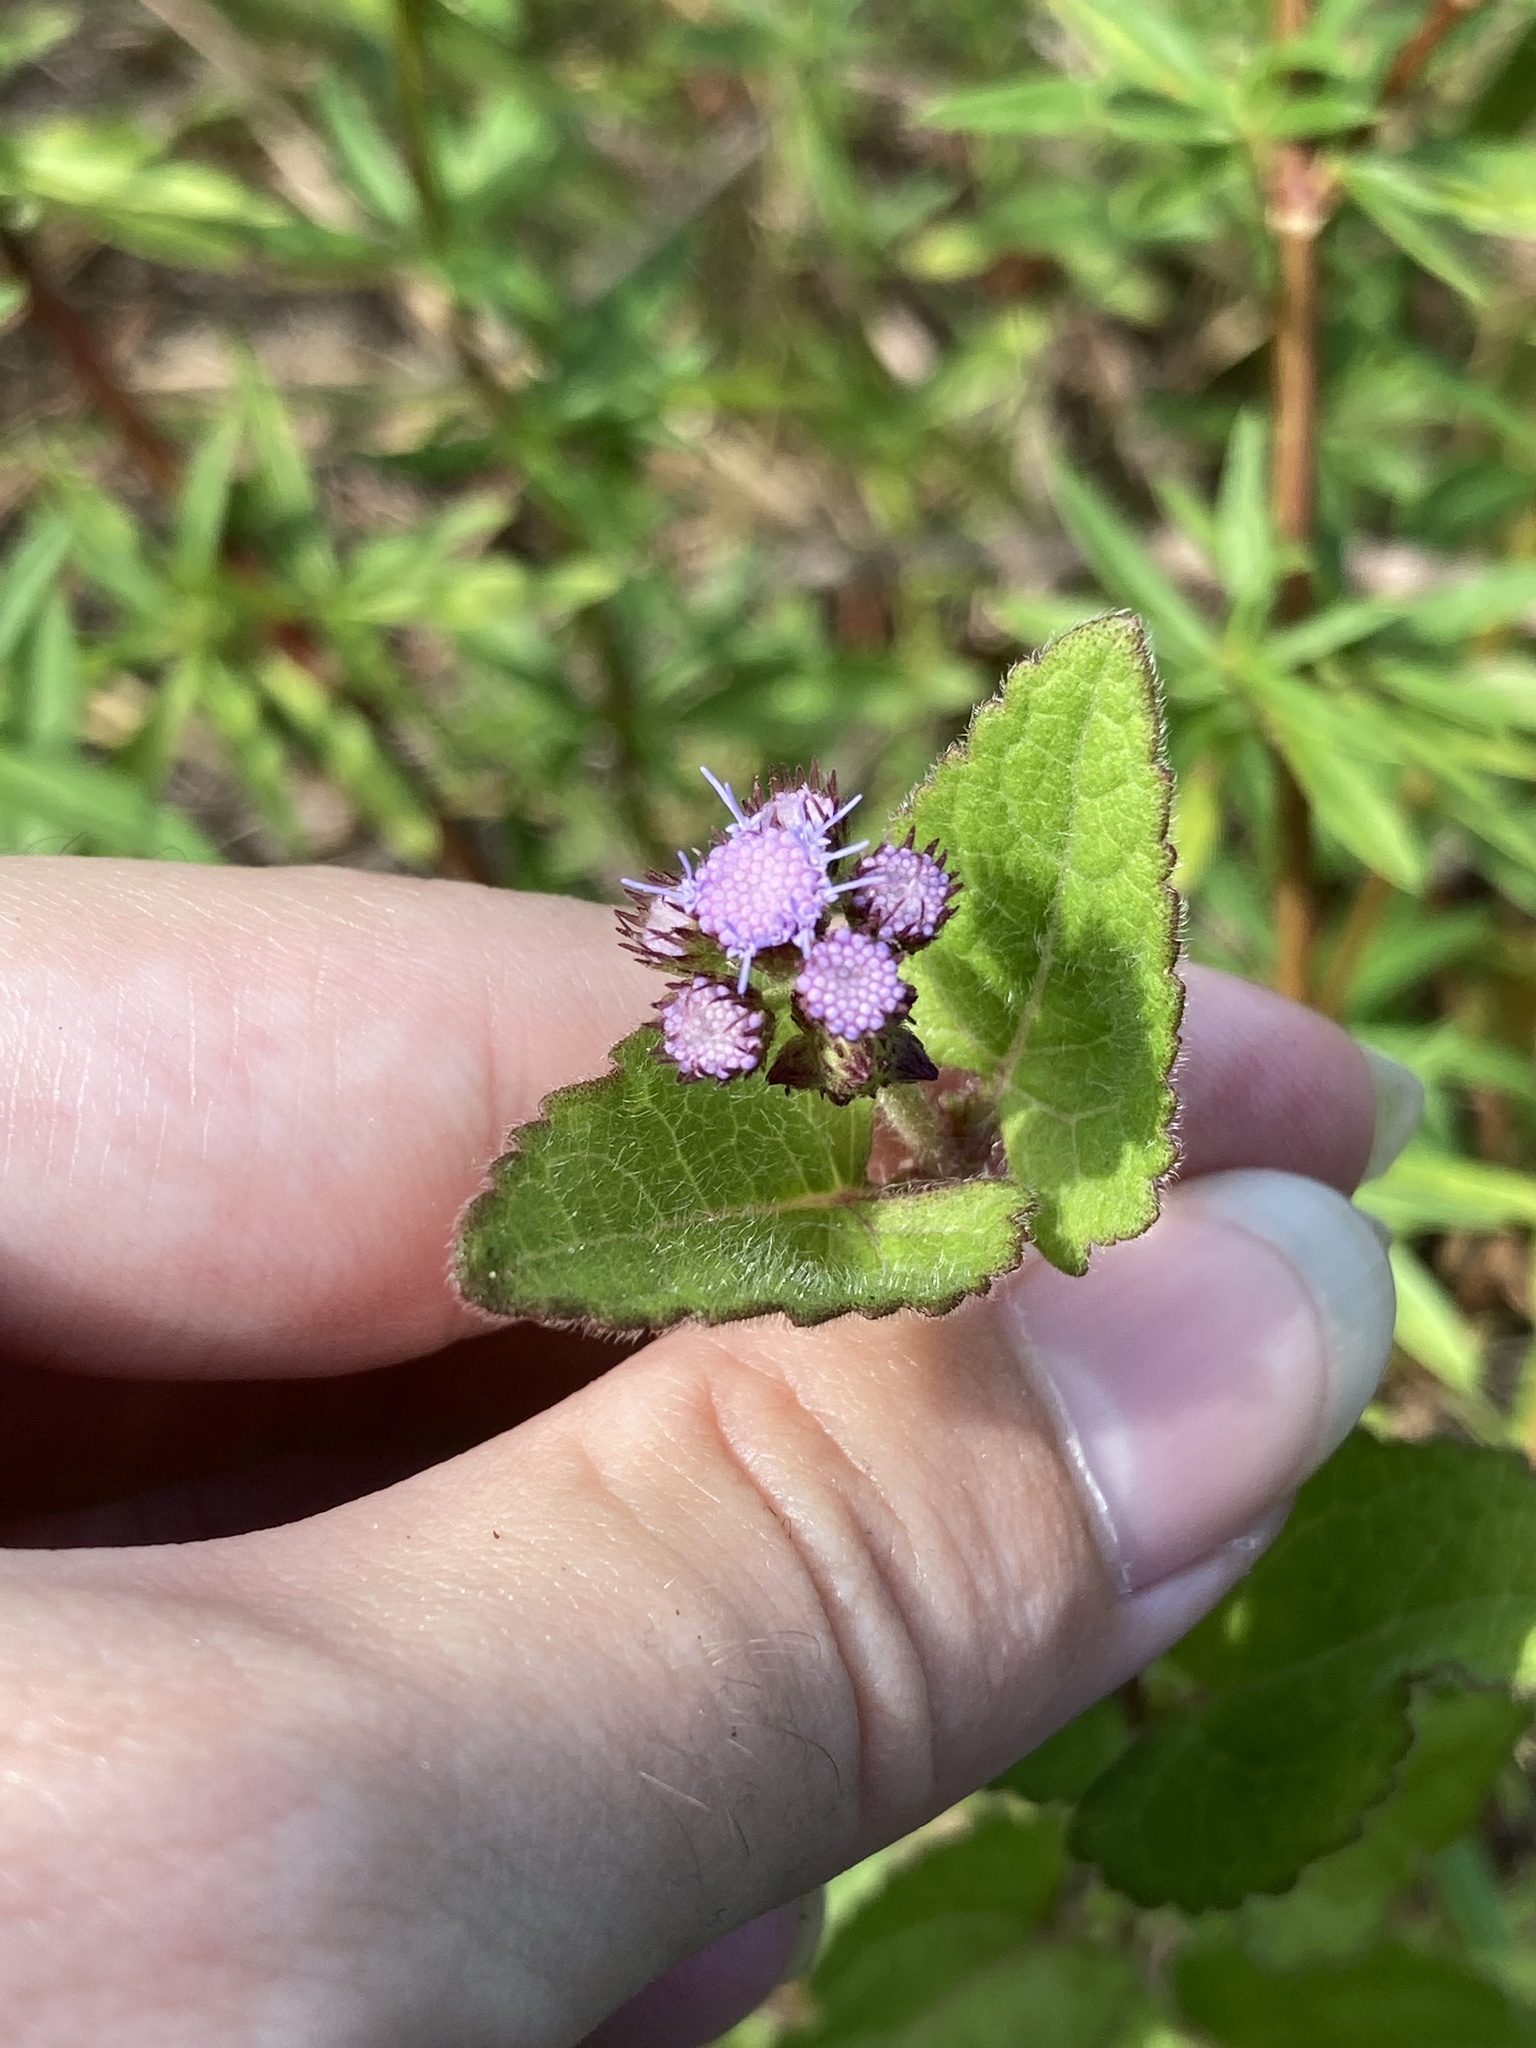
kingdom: Plantae
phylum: Tracheophyta
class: Magnoliopsida
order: Asterales
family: Asteraceae
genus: Conoclinium
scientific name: Conoclinium coelestinum
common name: Blue mistflower
